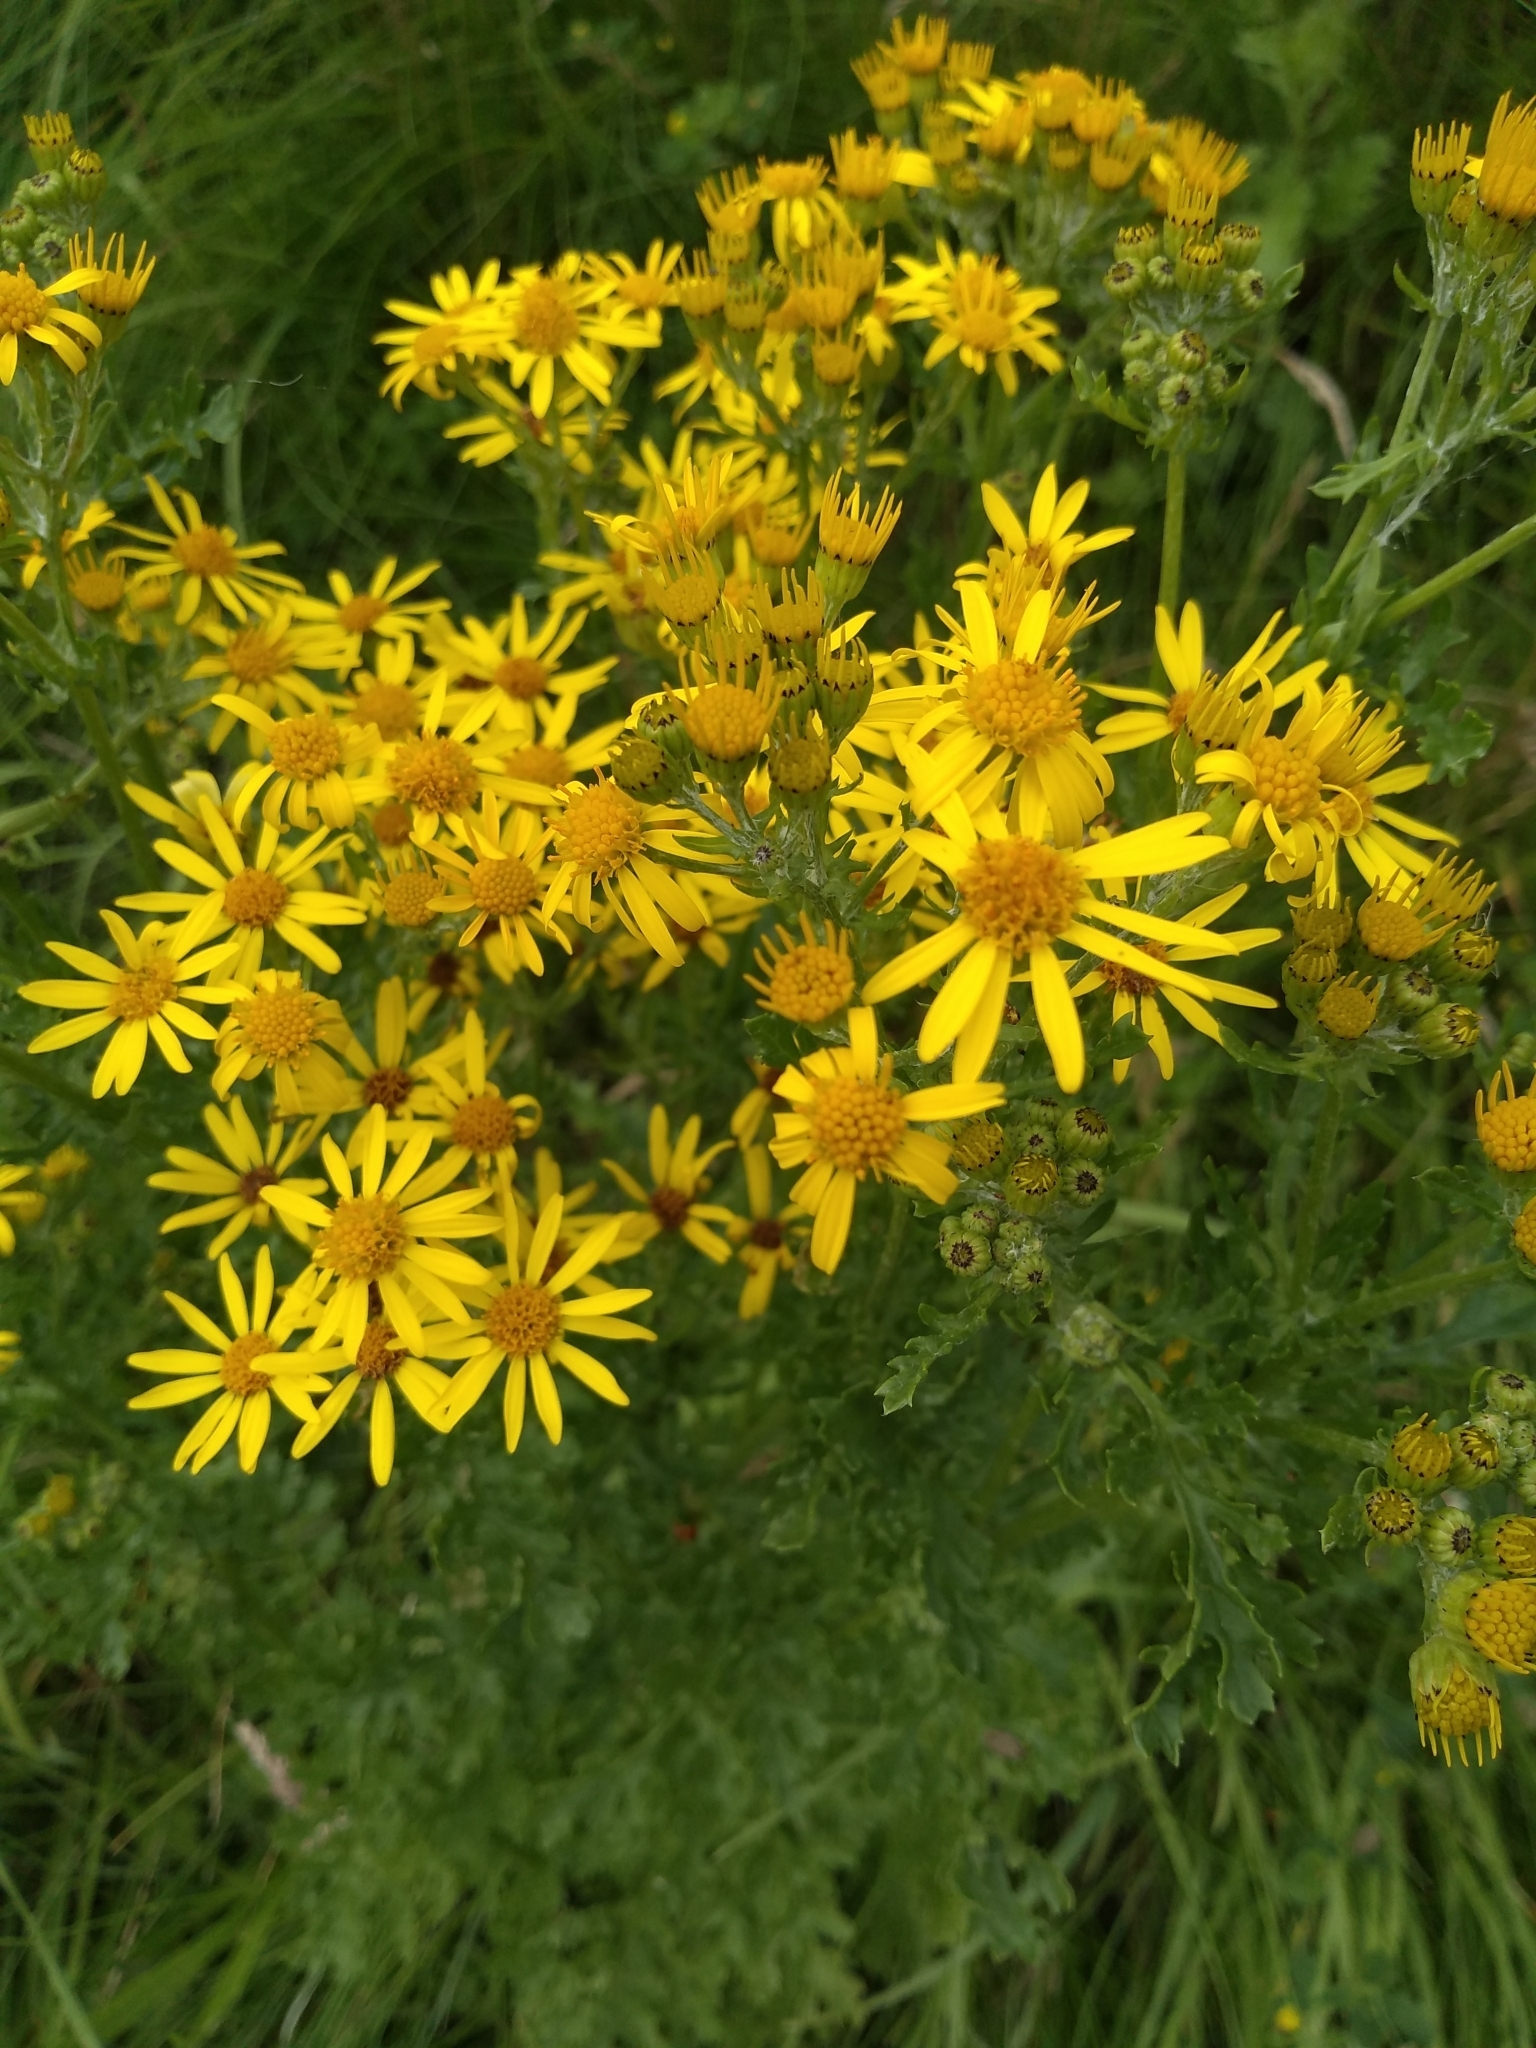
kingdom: Plantae
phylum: Tracheophyta
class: Magnoliopsida
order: Asterales
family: Asteraceae
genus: Jacobaea
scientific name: Jacobaea vulgaris
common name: Stinking willie
